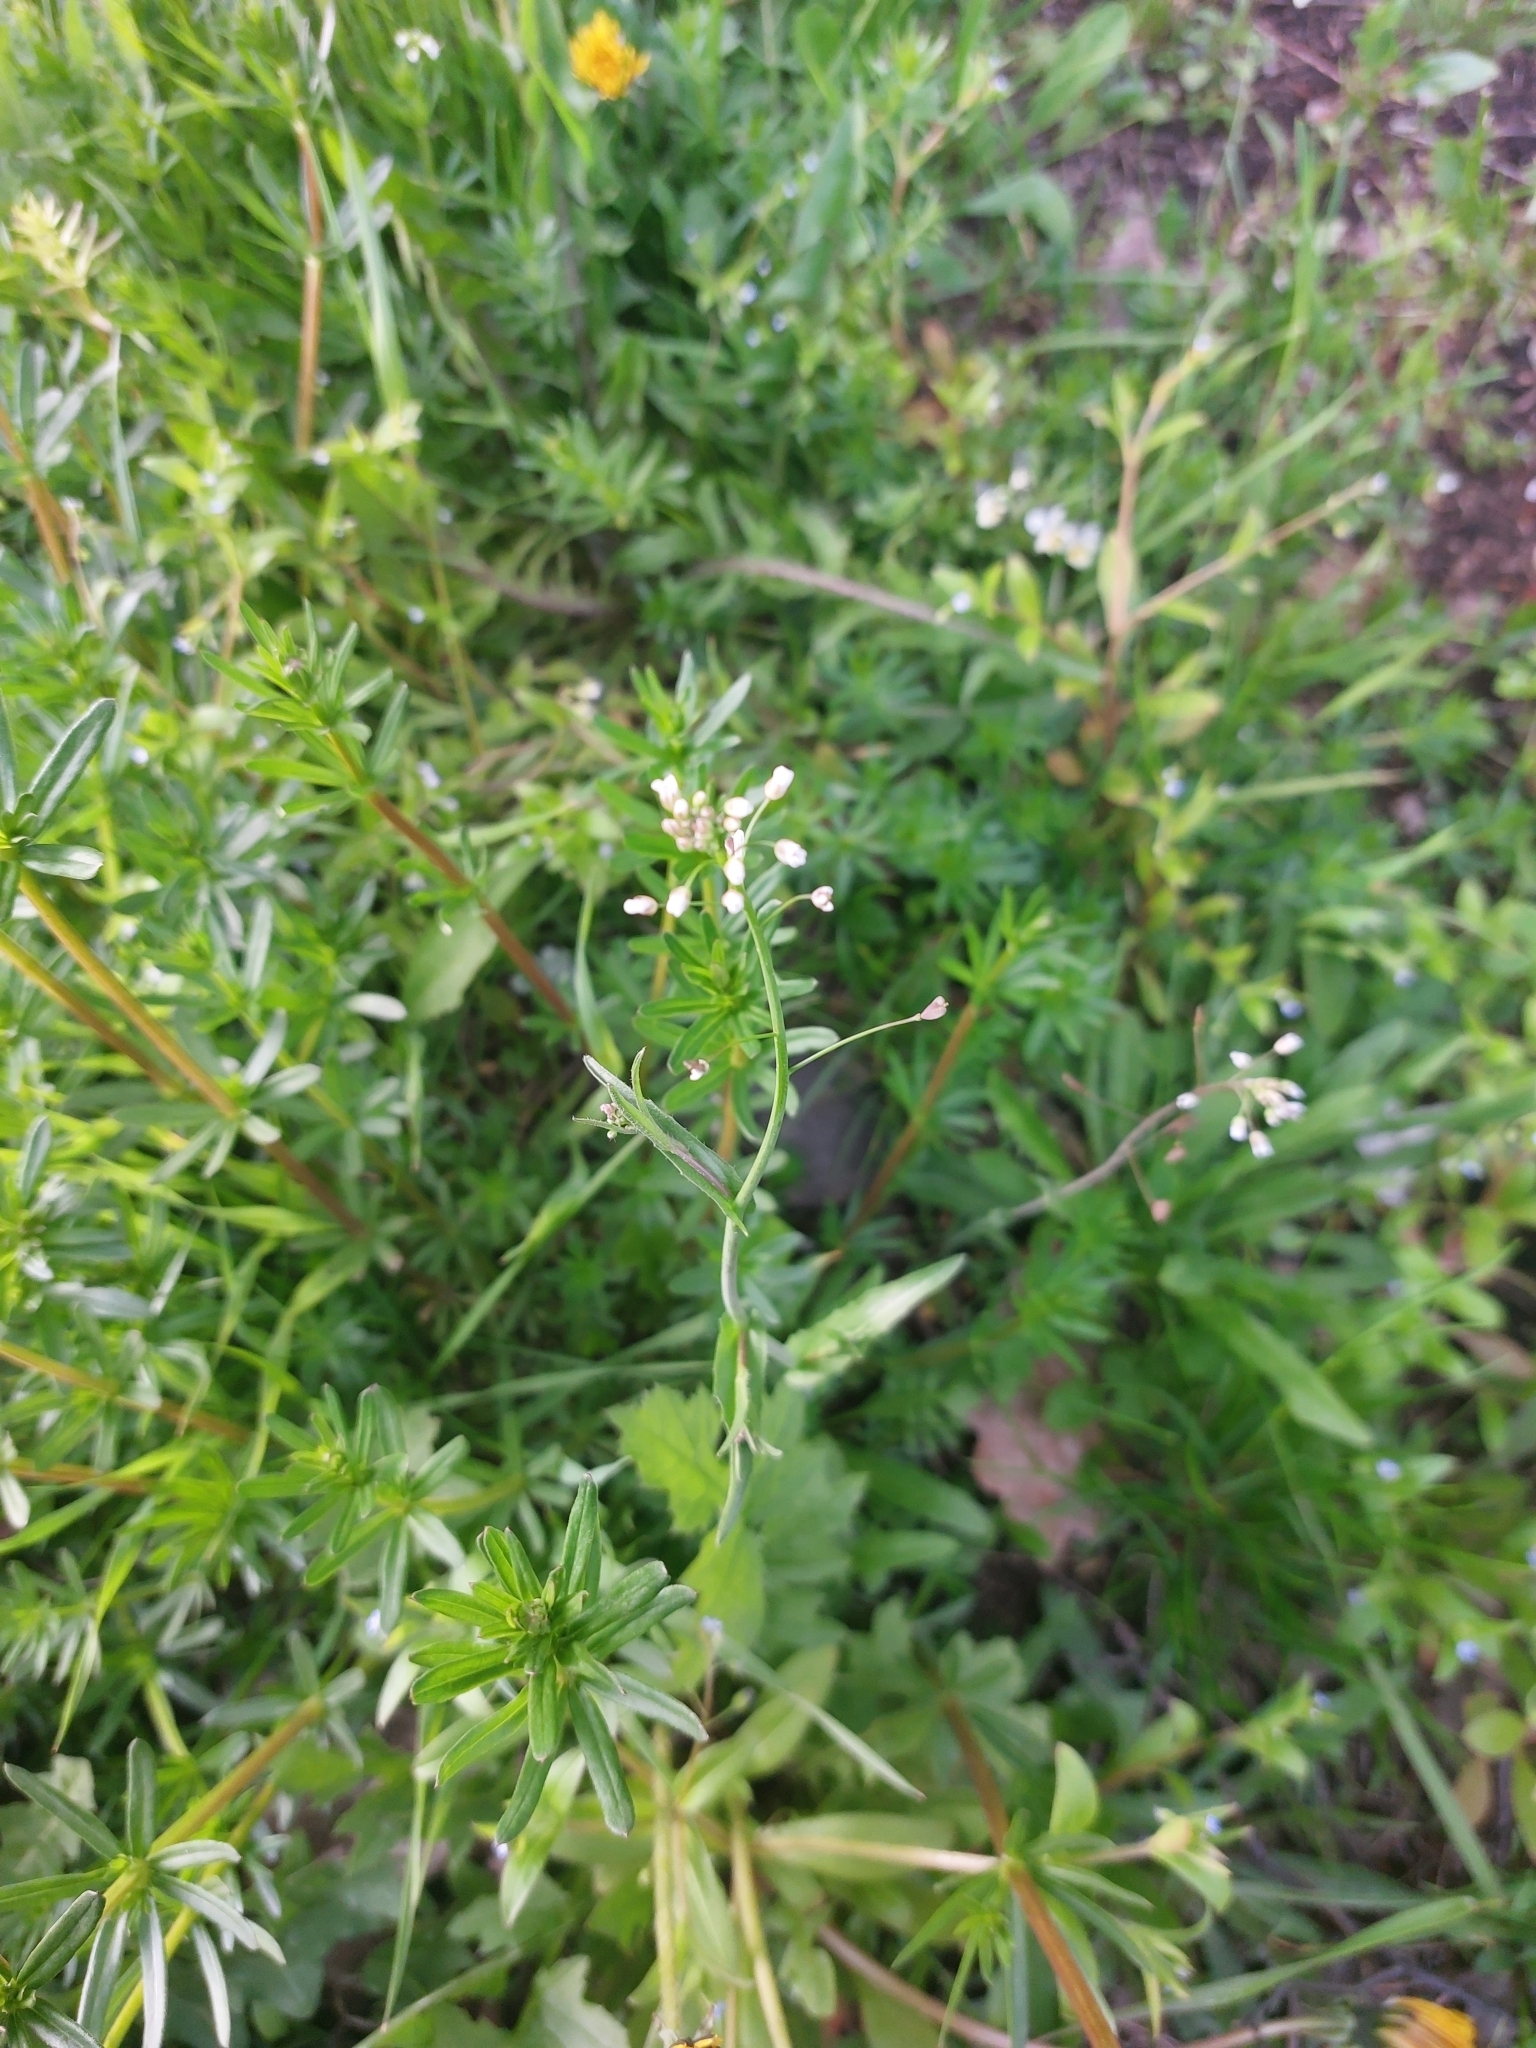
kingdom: Plantae
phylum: Tracheophyta
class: Magnoliopsida
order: Brassicales
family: Brassicaceae
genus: Capsella
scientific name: Capsella bursa-pastoris
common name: Shepherd's purse
